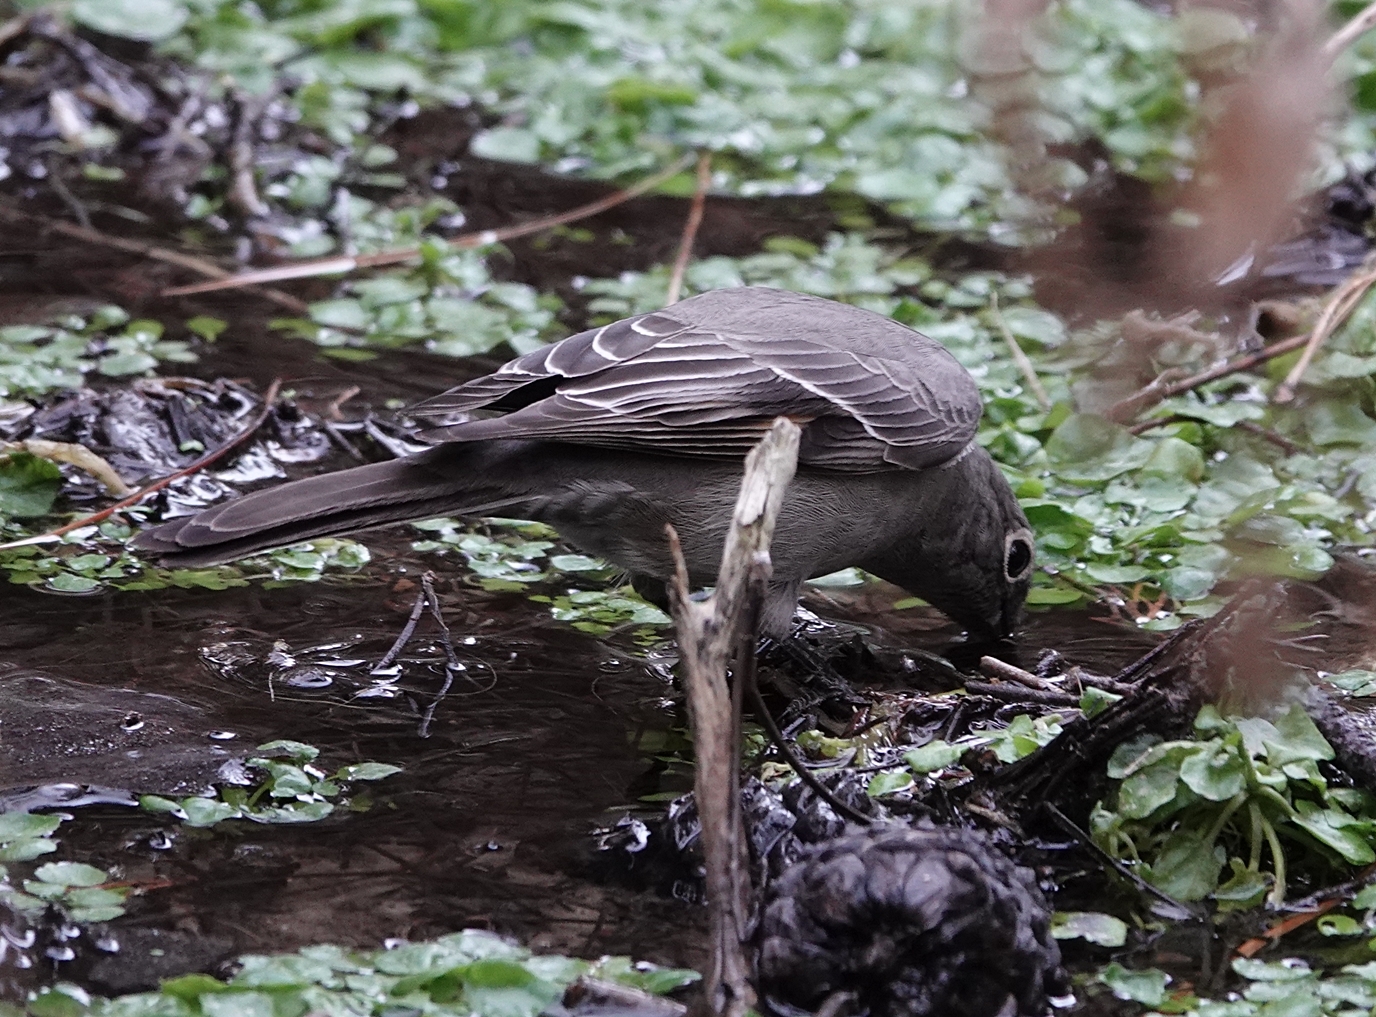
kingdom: Animalia
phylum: Chordata
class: Aves
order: Passeriformes
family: Turdidae
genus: Myadestes
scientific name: Myadestes townsendi
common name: Townsend's solitaire
